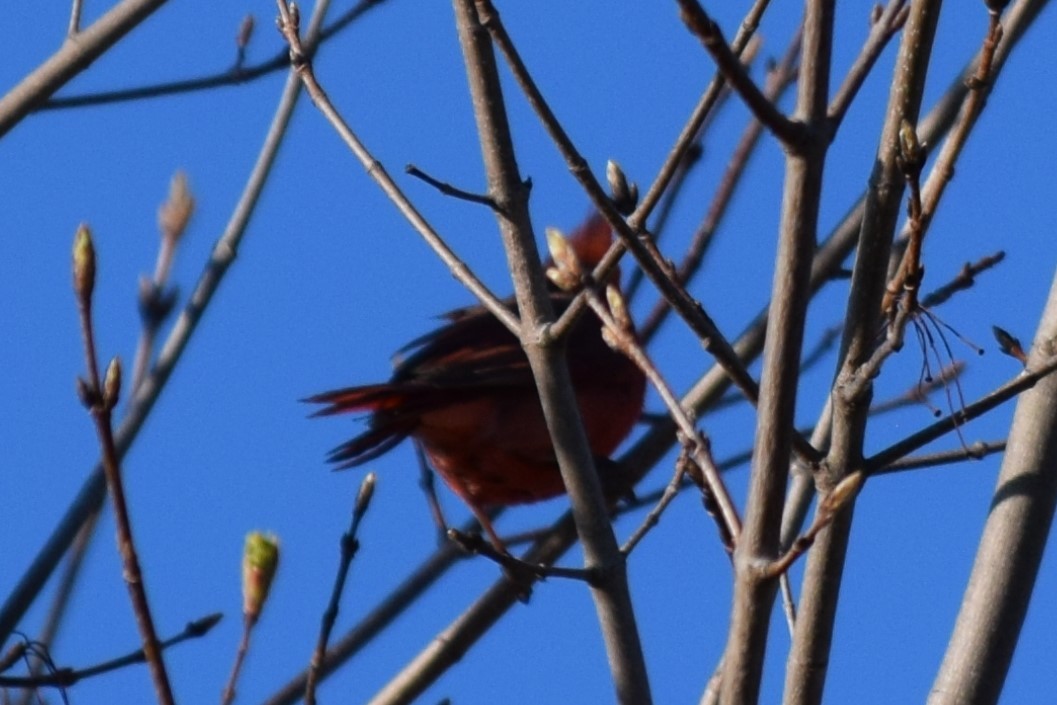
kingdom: Animalia
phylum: Chordata
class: Aves
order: Passeriformes
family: Cardinalidae
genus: Cardinalis
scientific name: Cardinalis cardinalis
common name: Northern cardinal
